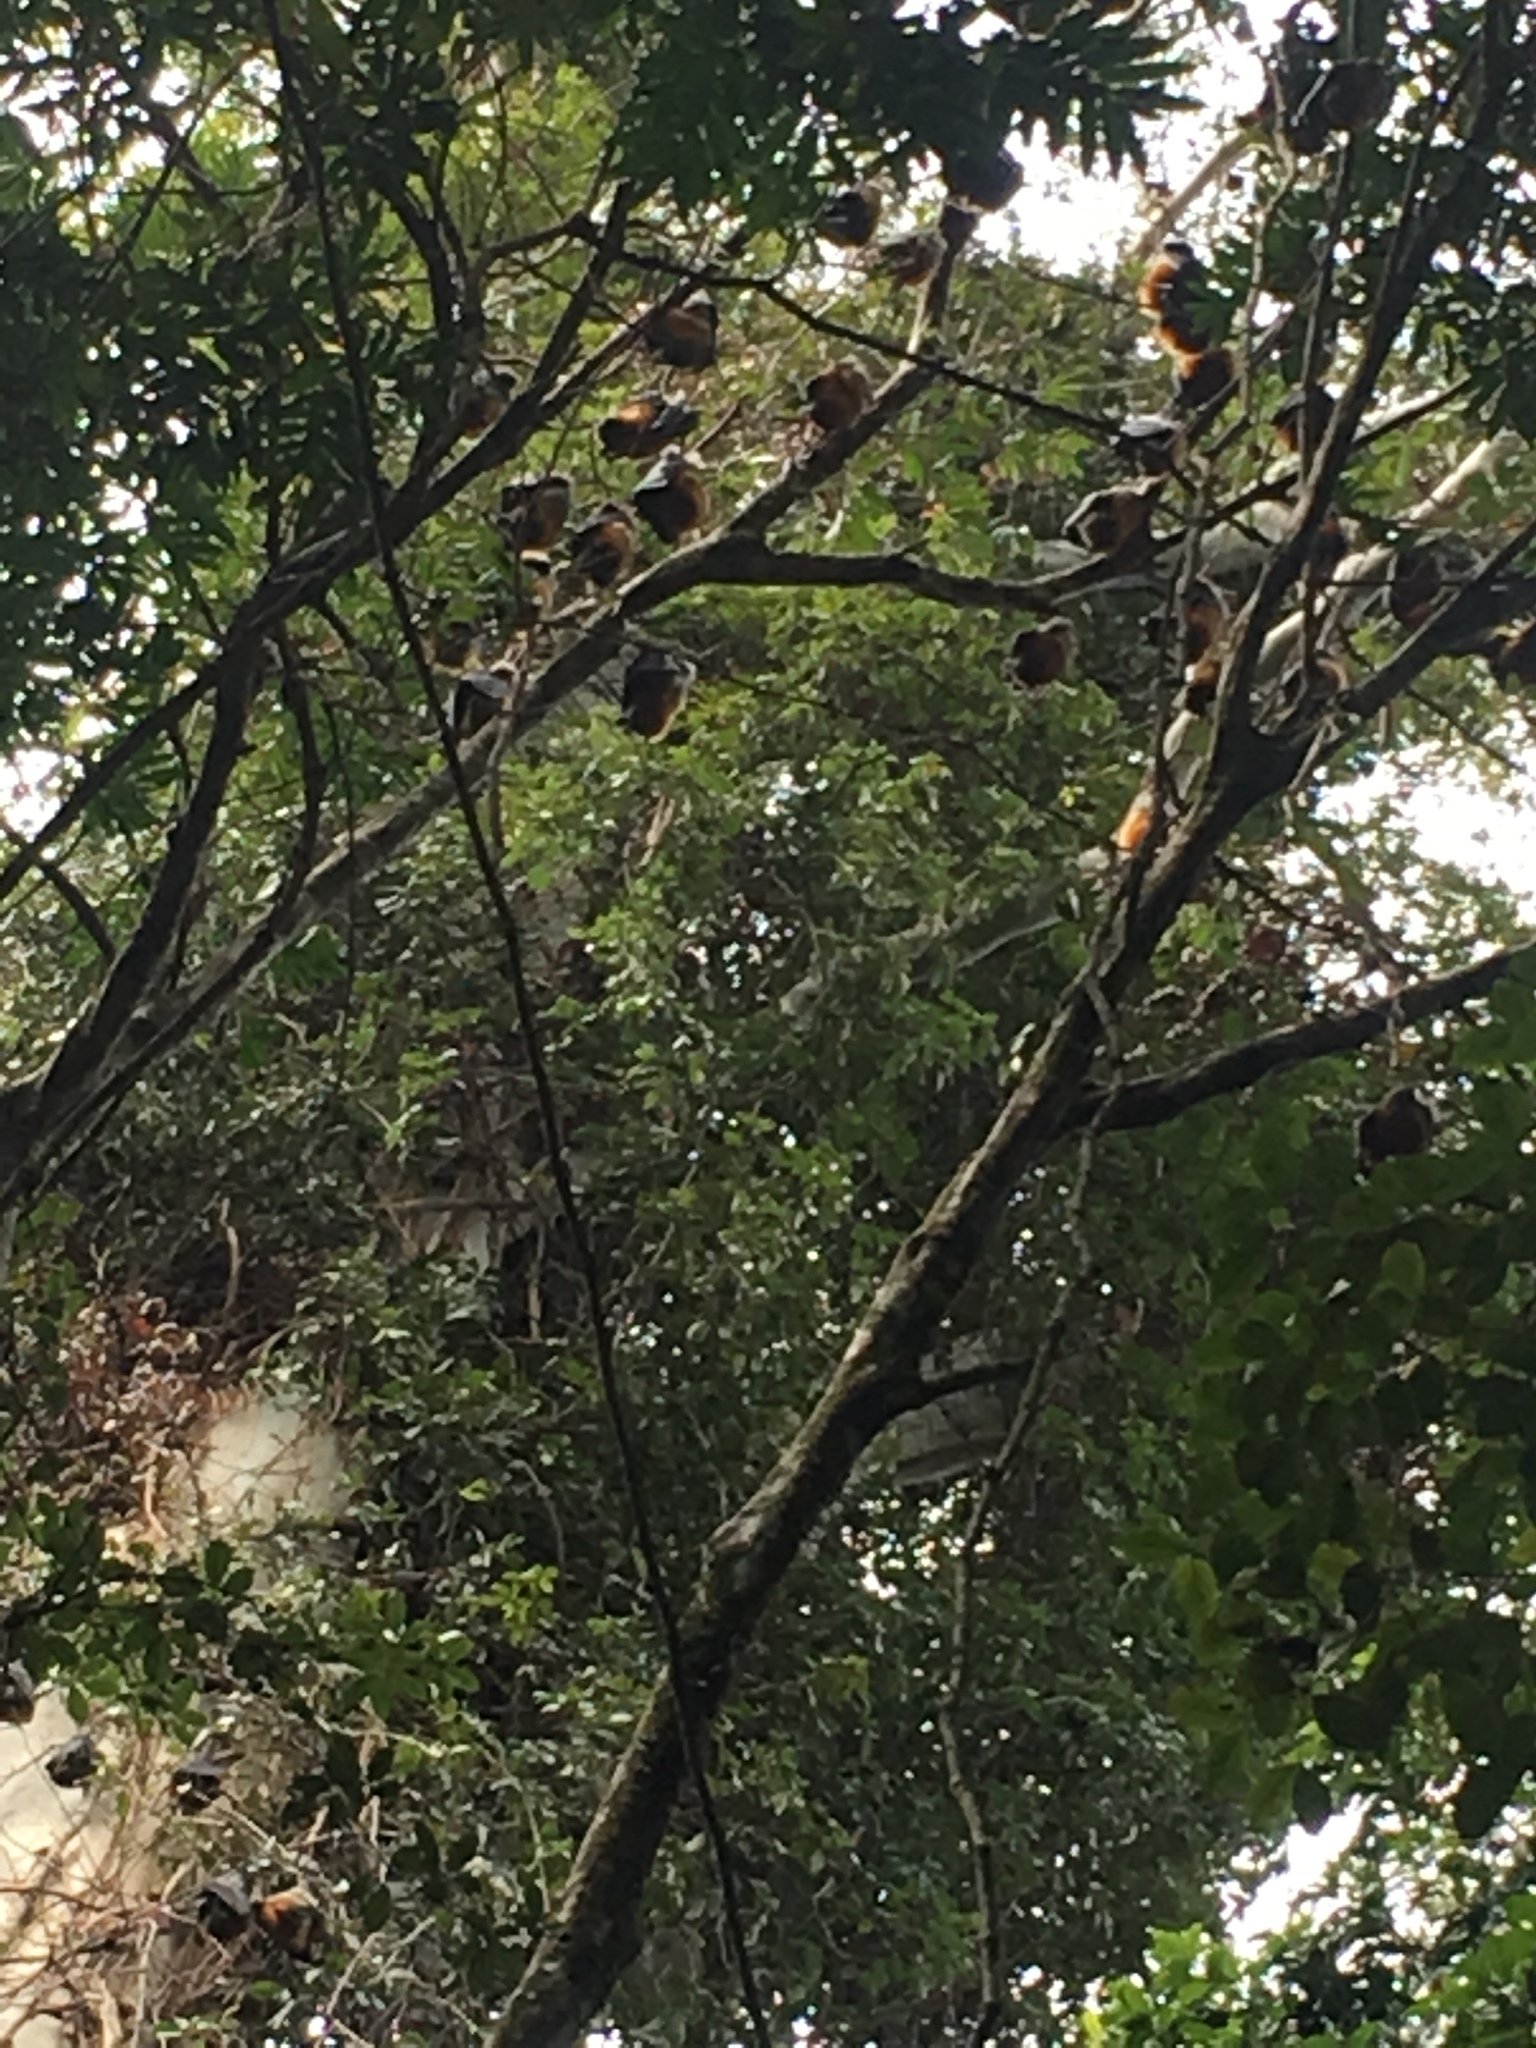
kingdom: Animalia
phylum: Chordata
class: Mammalia
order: Chiroptera
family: Pteropodidae
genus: Pteropus
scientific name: Pteropus poliocephalus
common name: Gray-headed flying fox
